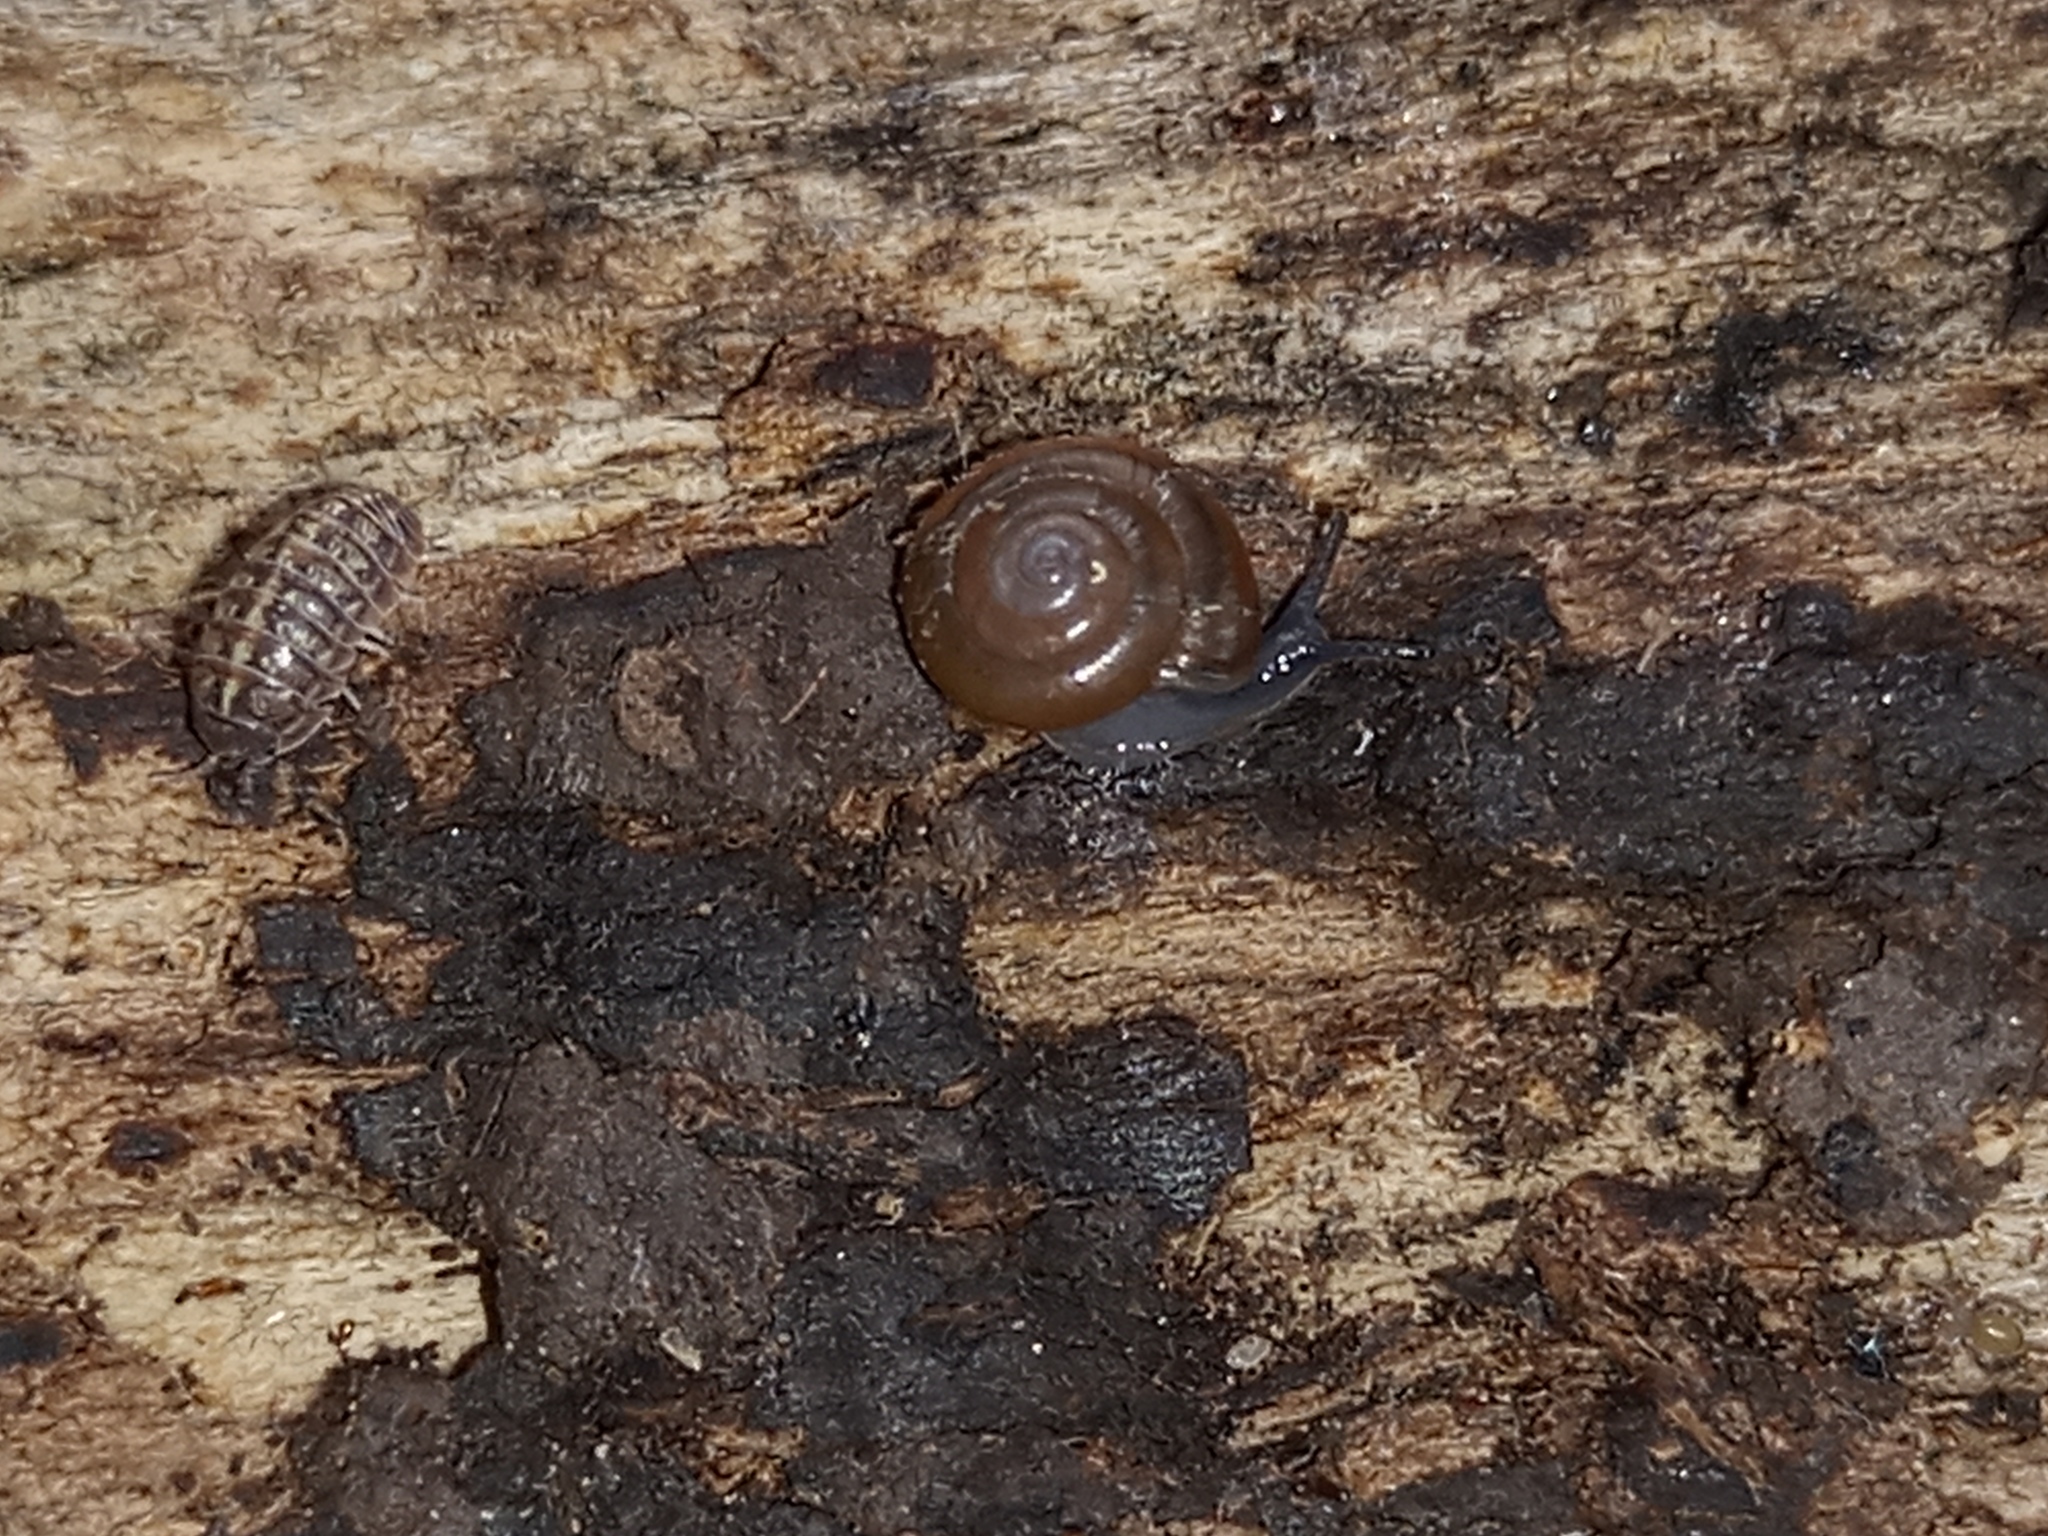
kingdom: Animalia
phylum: Arthropoda
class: Malacostraca
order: Isopoda
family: Armadillidiidae
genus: Armadillidium
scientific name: Armadillidium vulgare
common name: Common pill woodlouse
